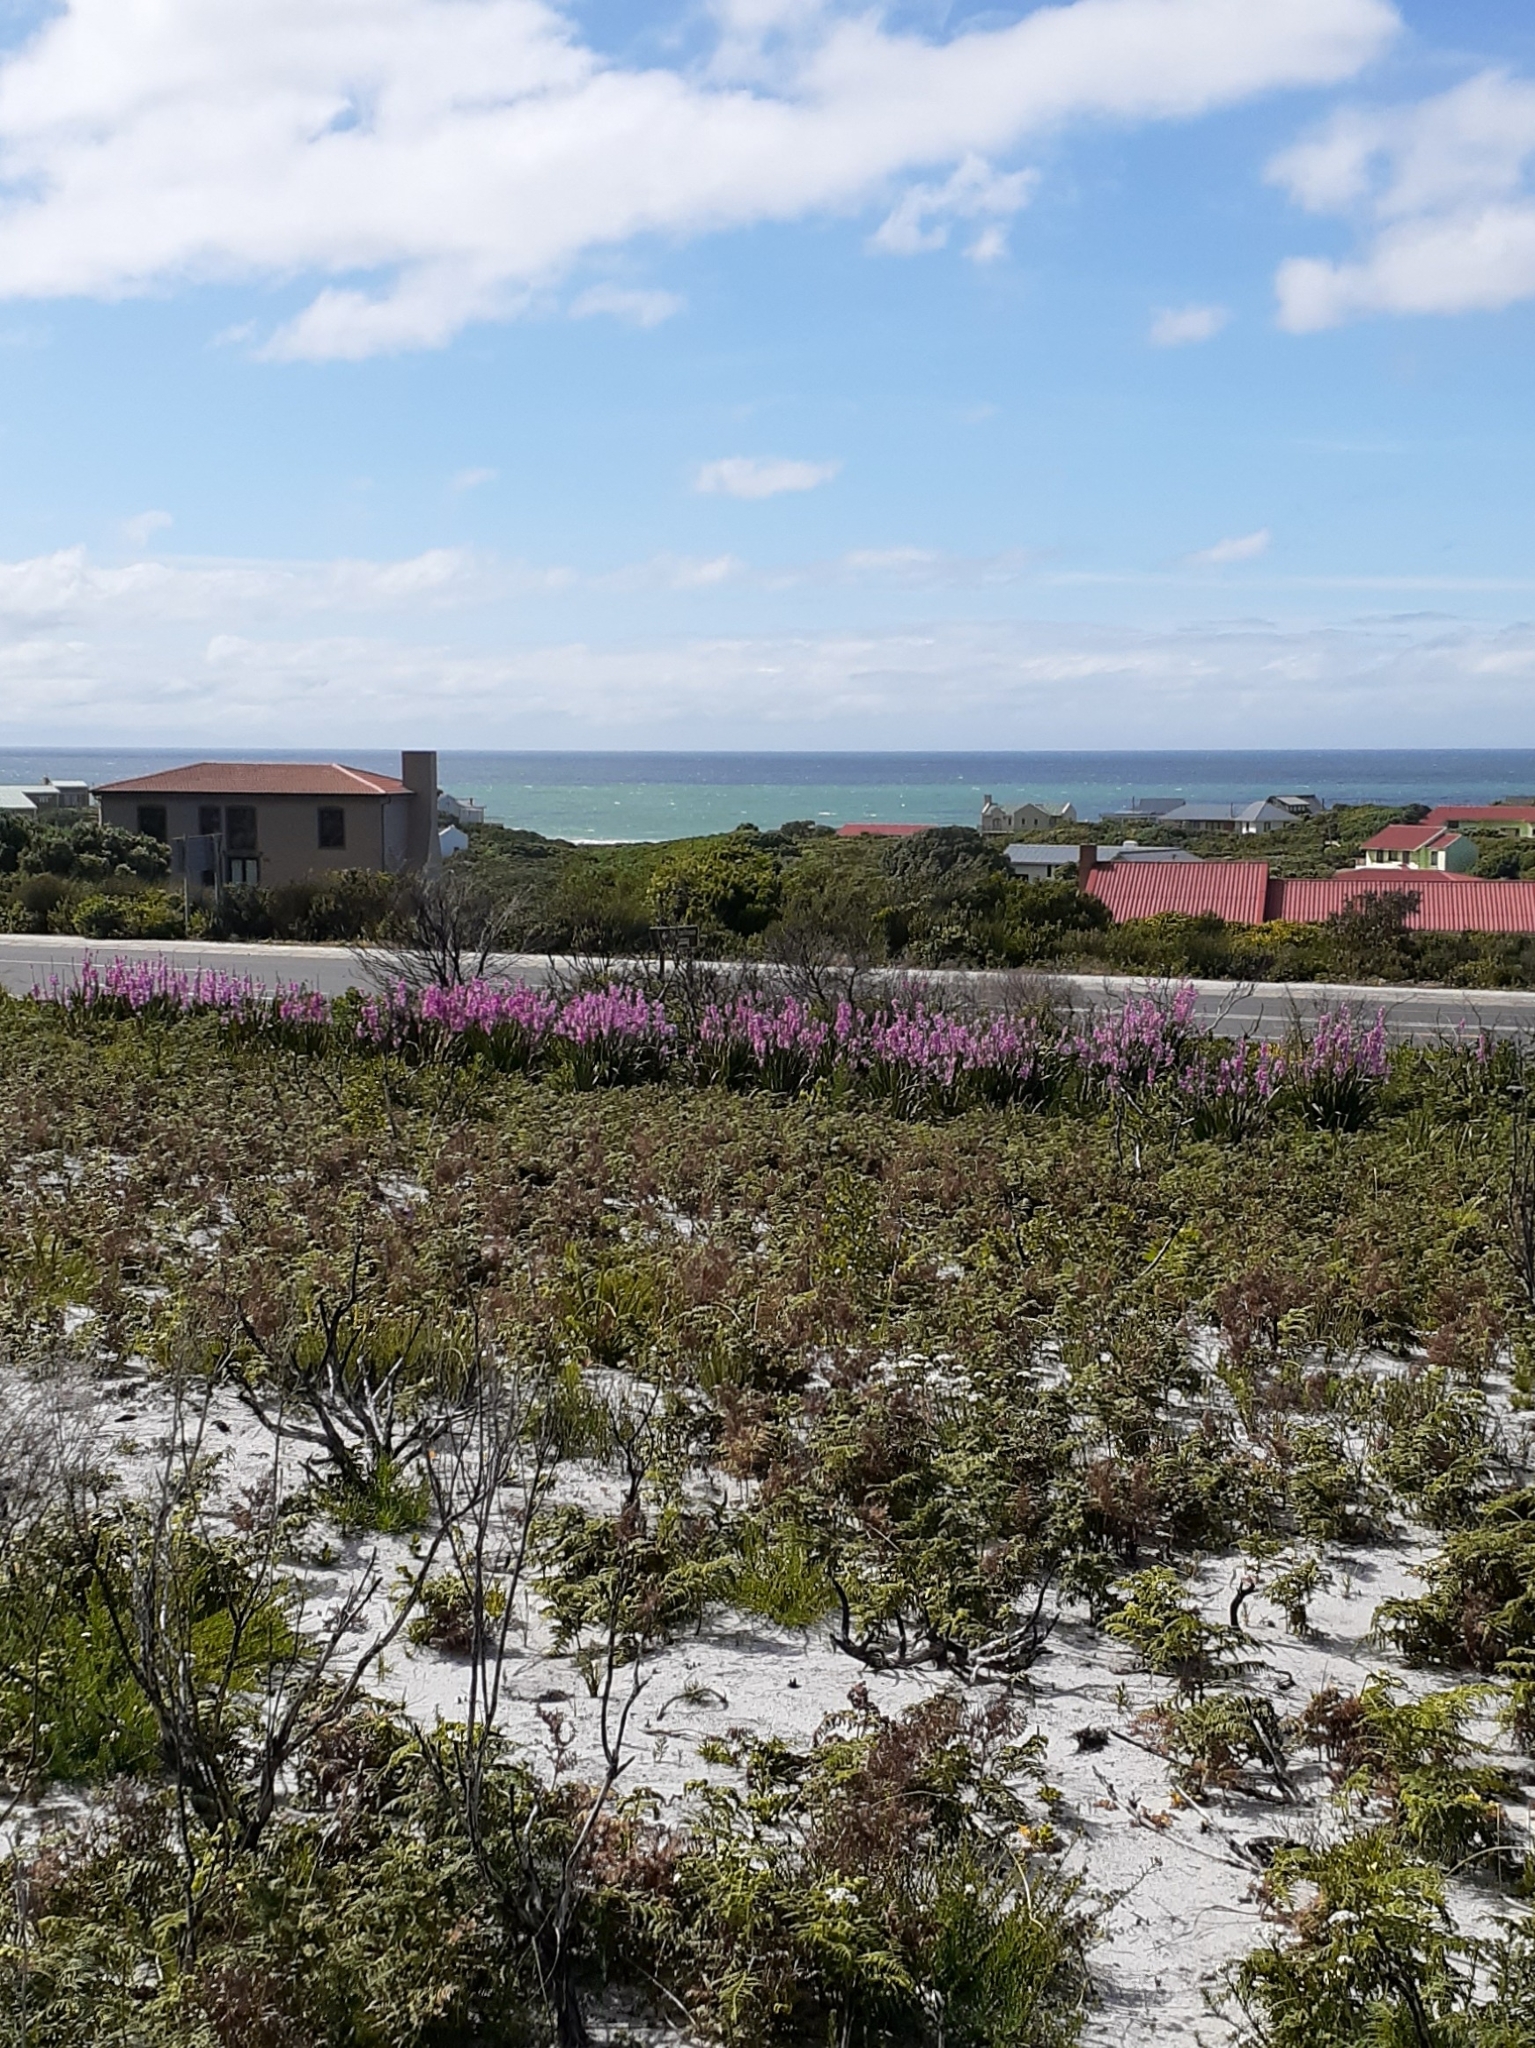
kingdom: Plantae
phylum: Tracheophyta
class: Liliopsida
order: Asparagales
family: Iridaceae
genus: Watsonia
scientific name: Watsonia borbonica
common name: Bugle-lily
